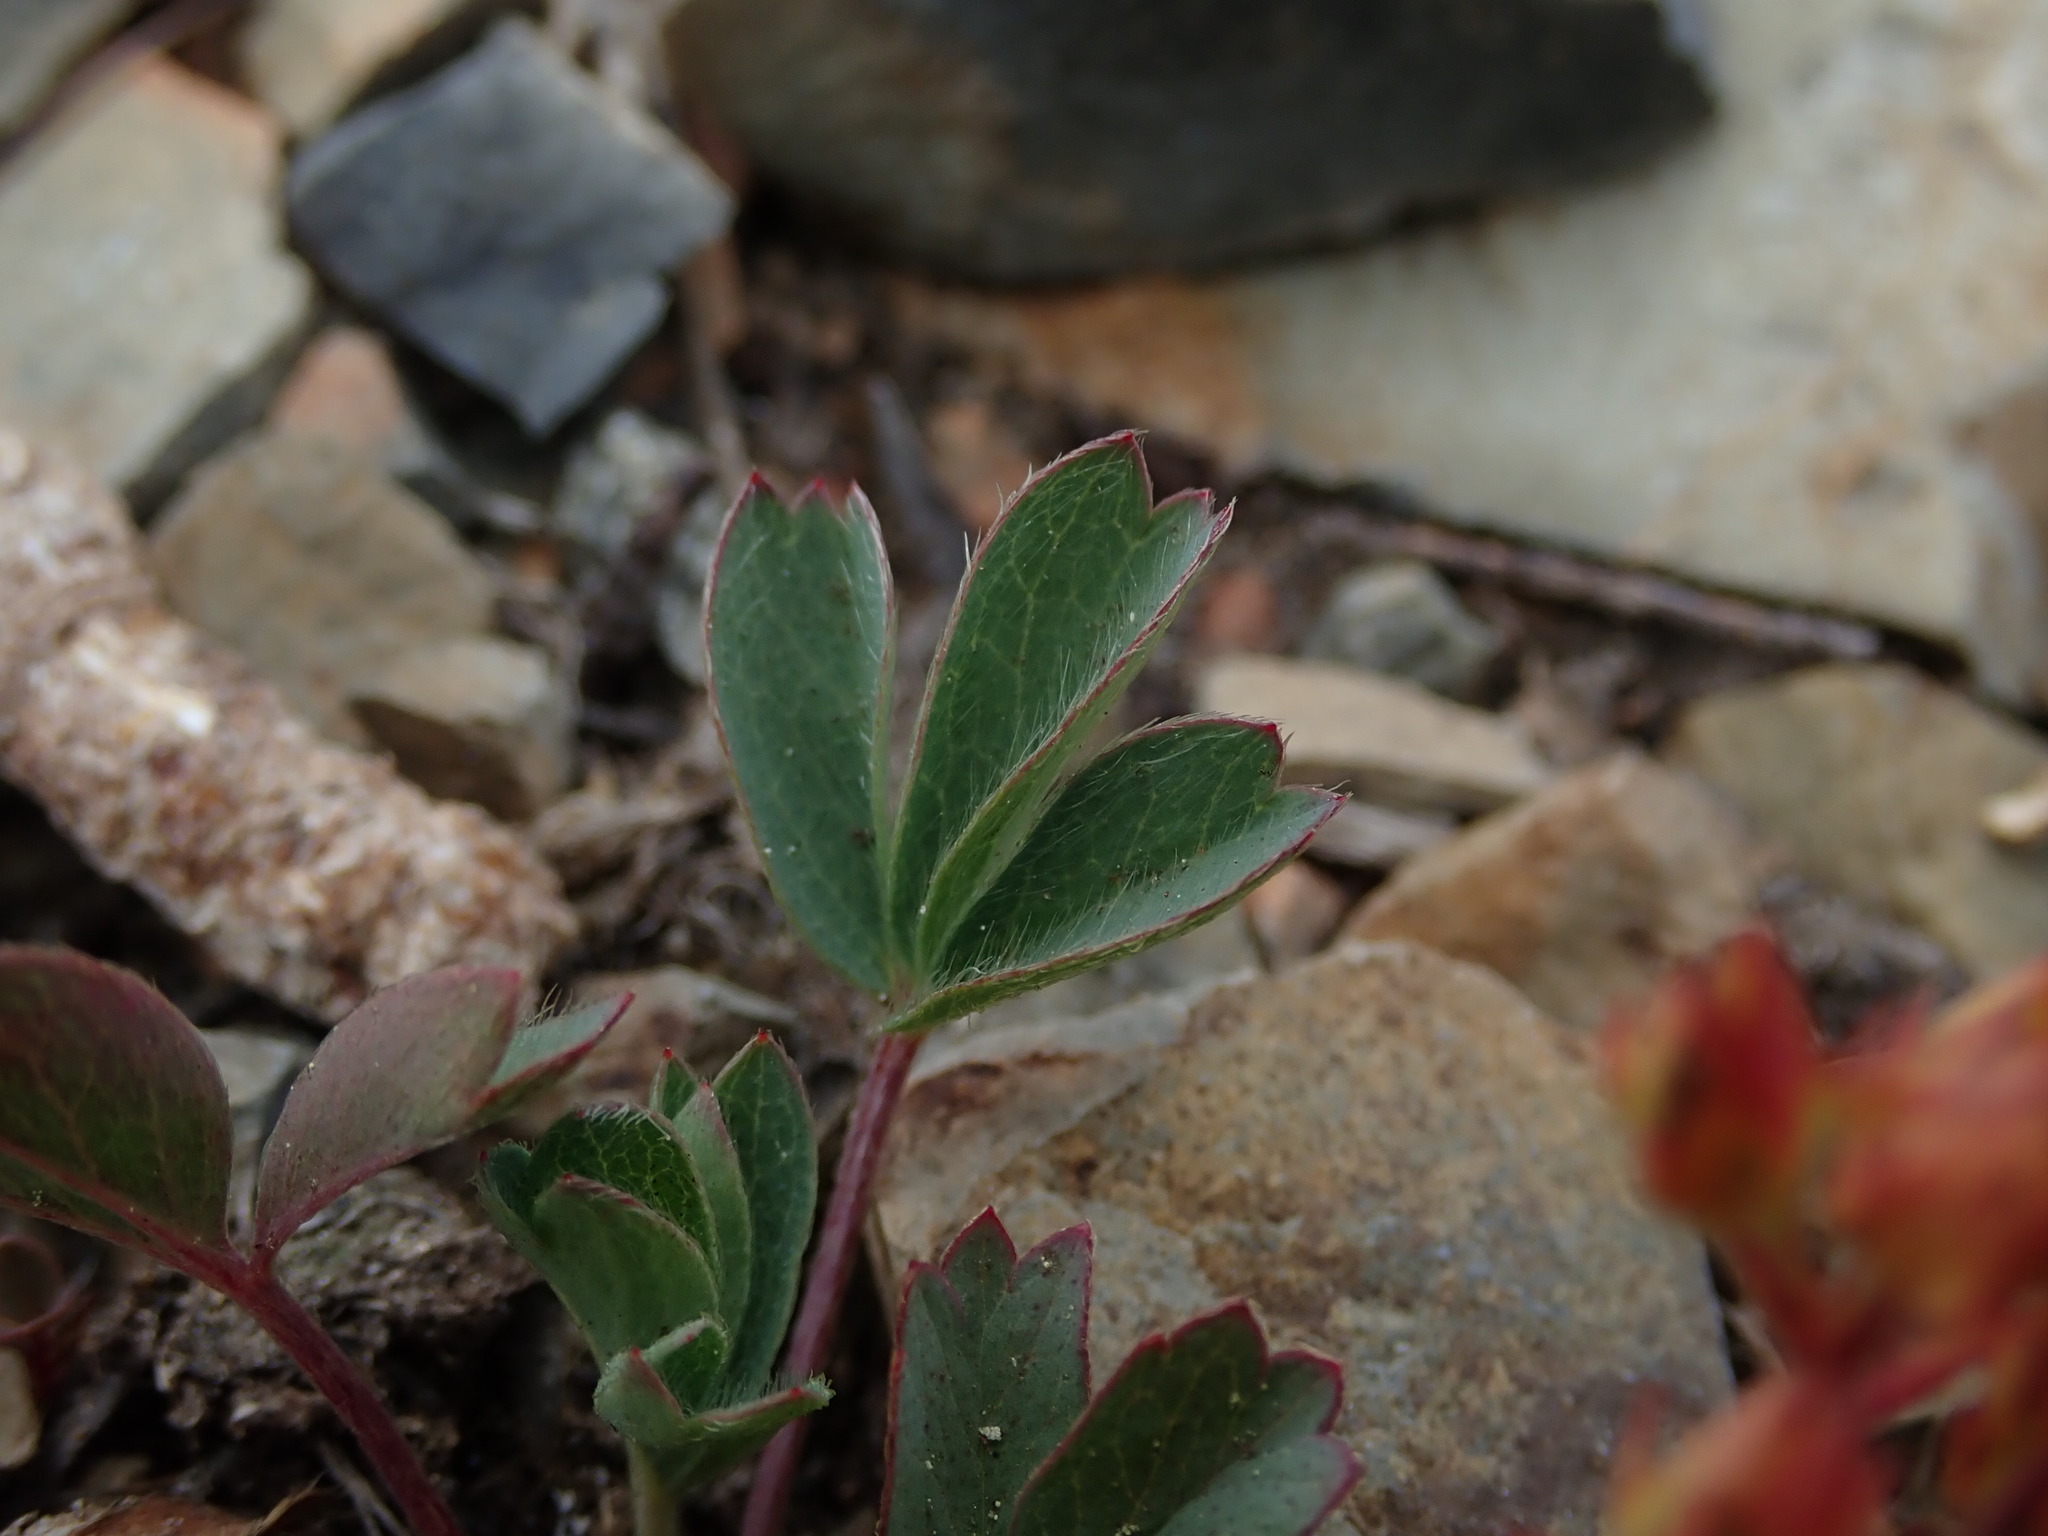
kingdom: Plantae
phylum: Tracheophyta
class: Magnoliopsida
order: Rosales
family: Rosaceae
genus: Sibbaldia
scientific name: Sibbaldia procumbens
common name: Creeping sibbaldia
